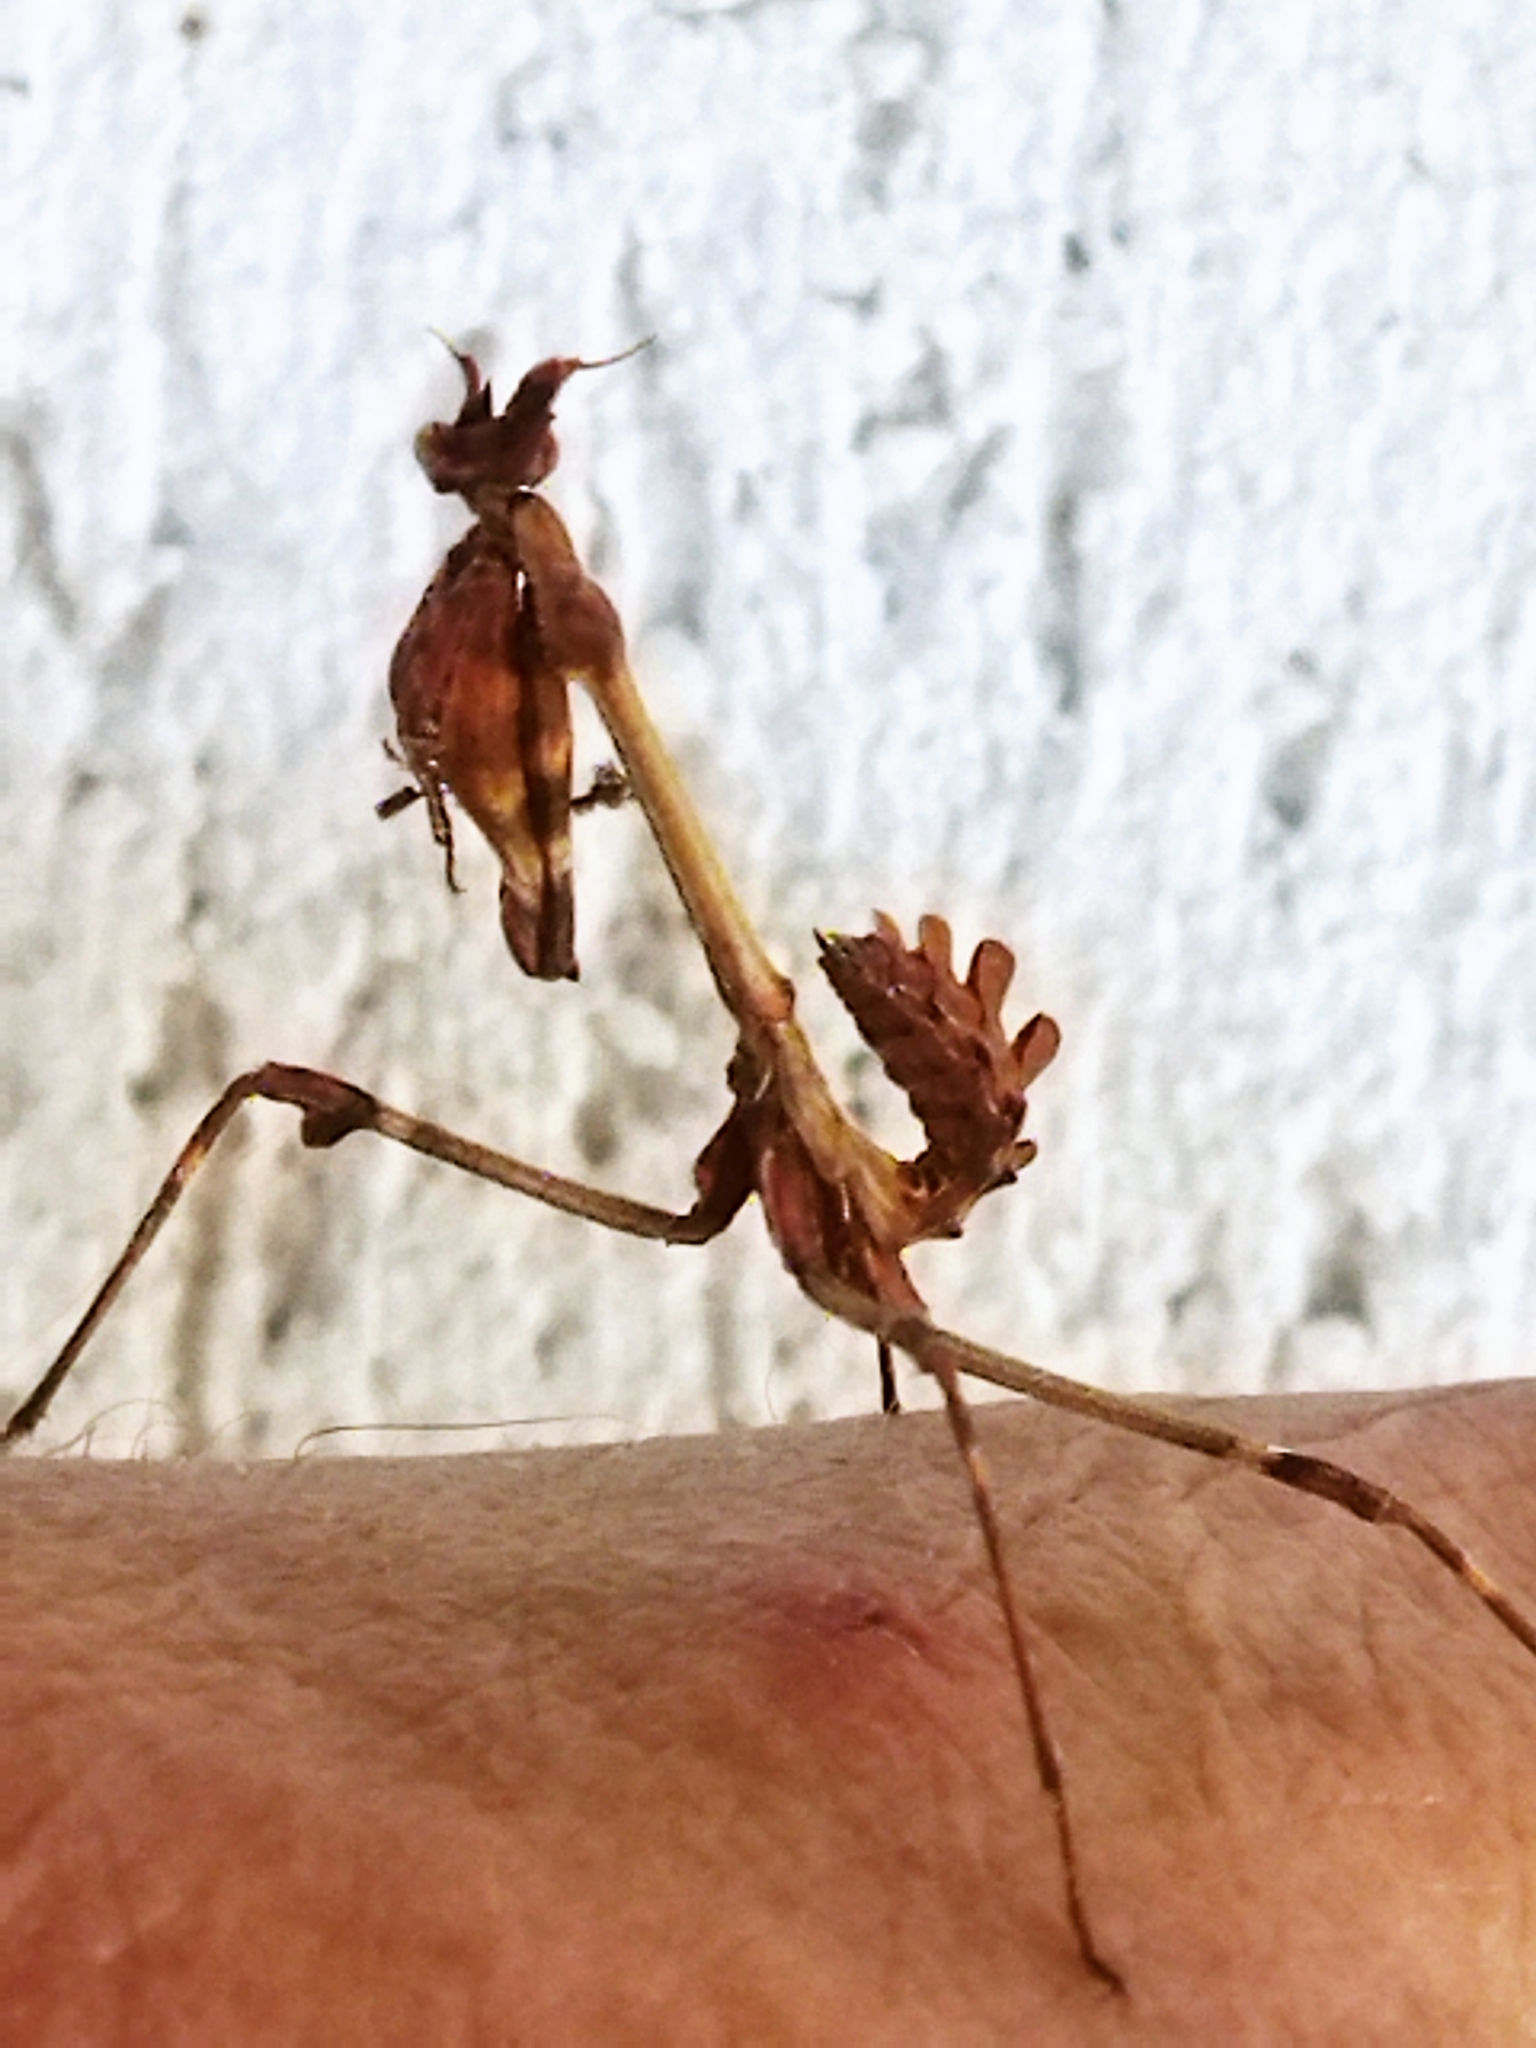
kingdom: Animalia
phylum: Arthropoda
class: Insecta
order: Mantodea
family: Empusidae
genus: Empusa
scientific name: Empusa fasciata
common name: Devil's mare
